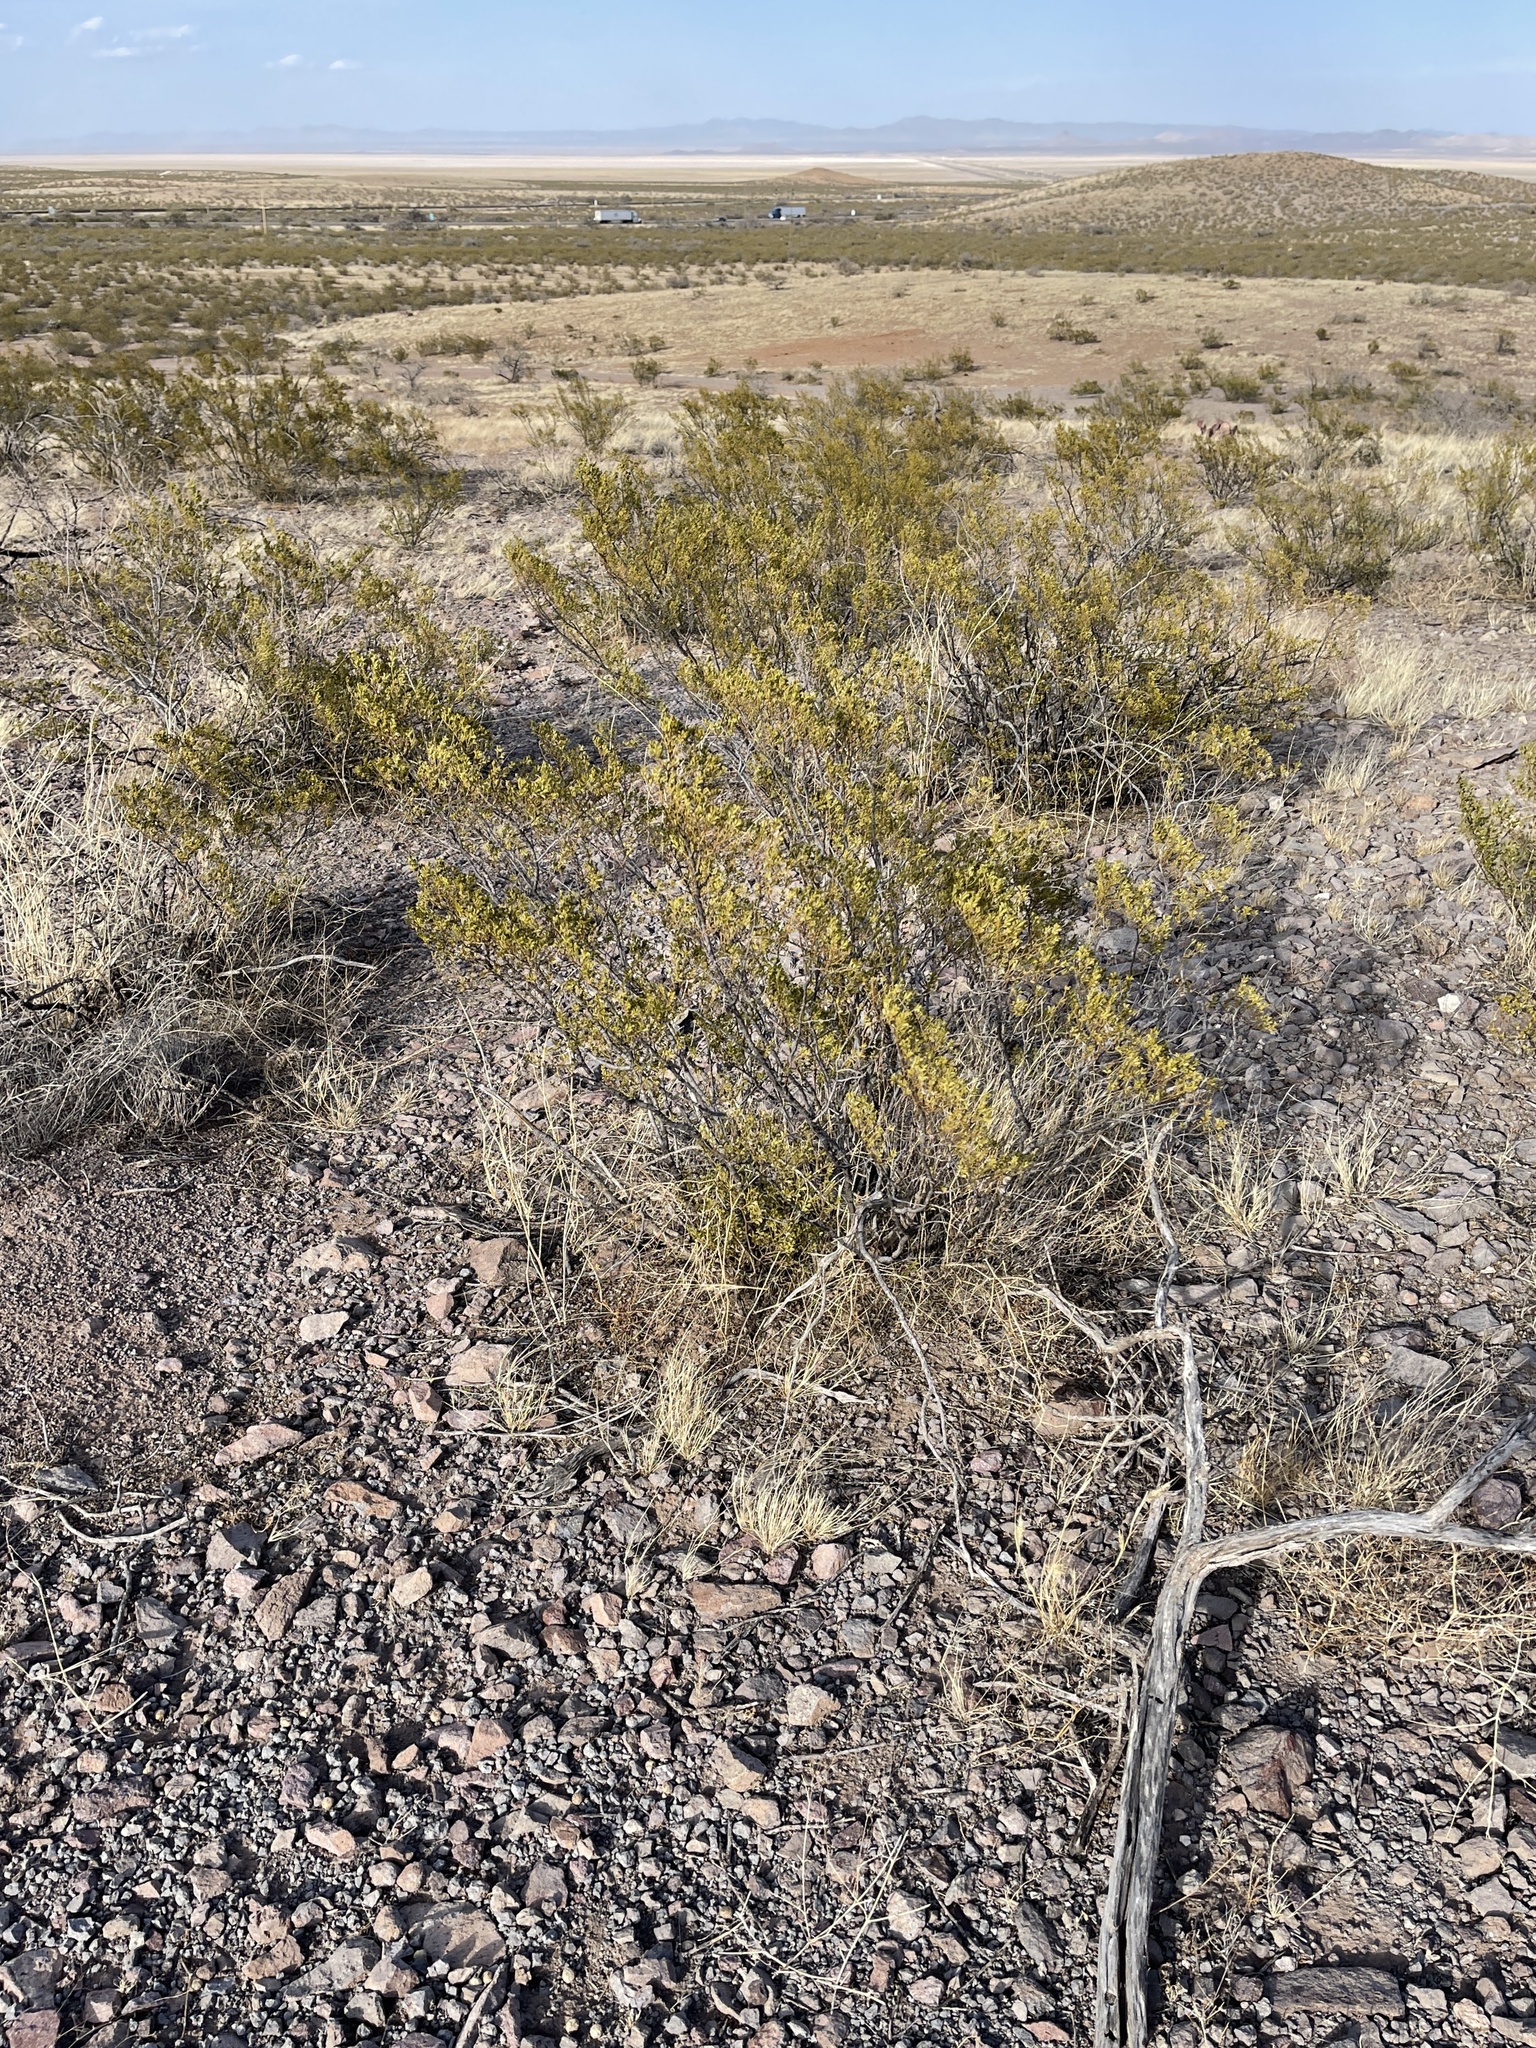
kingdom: Plantae
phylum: Tracheophyta
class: Magnoliopsida
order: Zygophyllales
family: Zygophyllaceae
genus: Larrea
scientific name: Larrea tridentata
